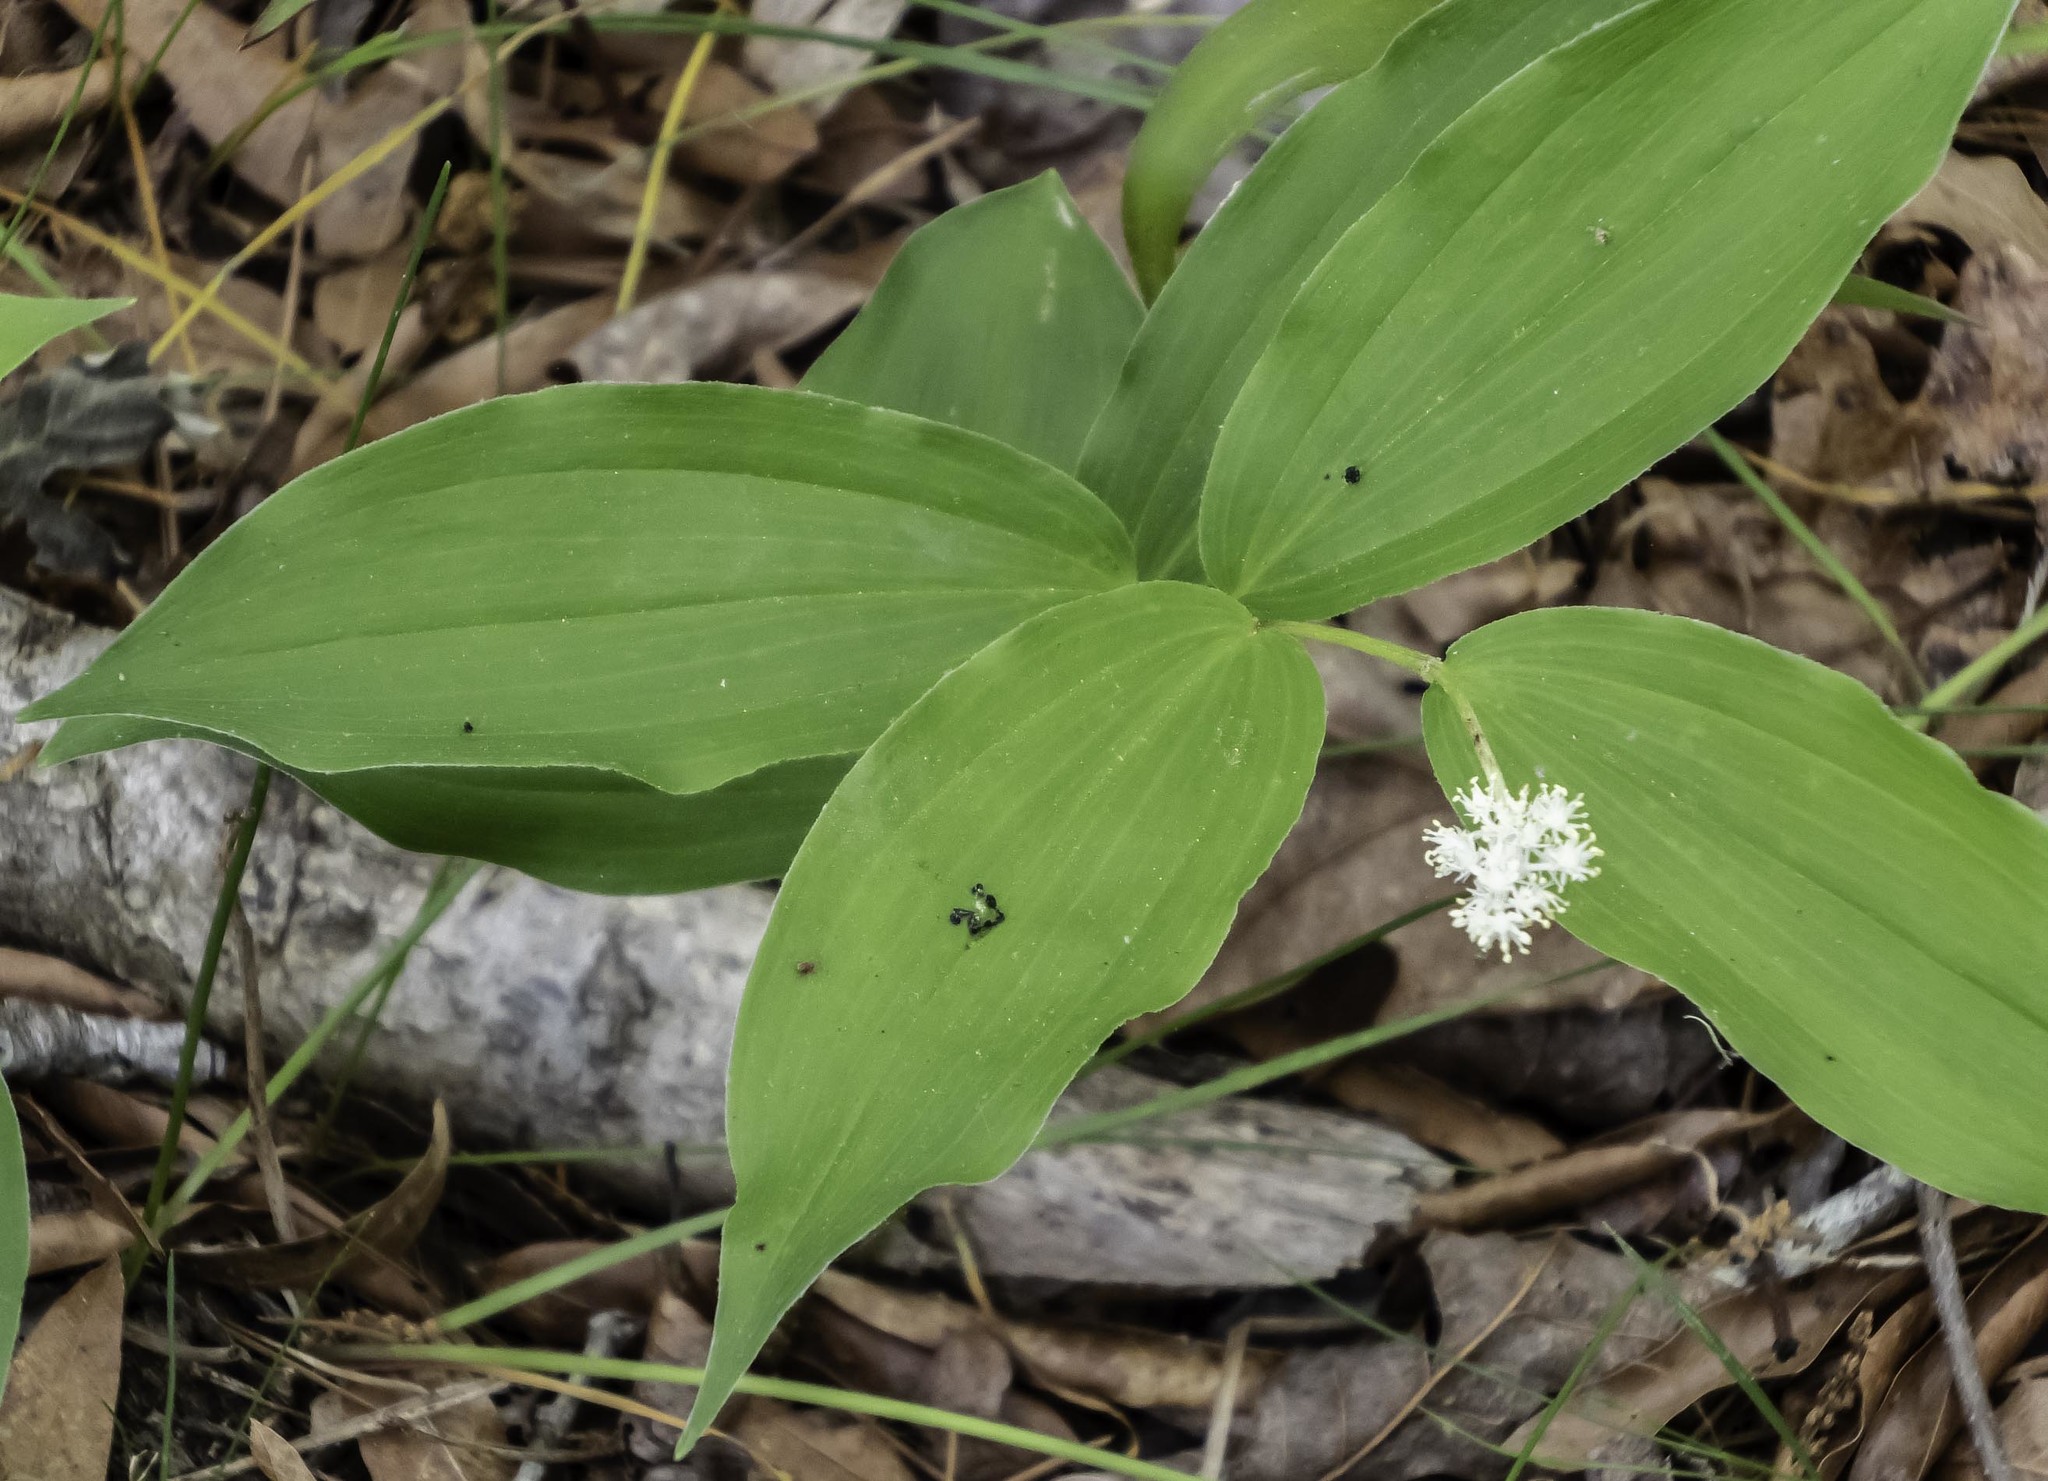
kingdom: Plantae
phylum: Tracheophyta
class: Liliopsida
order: Asparagales
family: Asparagaceae
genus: Maianthemum
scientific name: Maianthemum racemosum
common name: False spikenard
